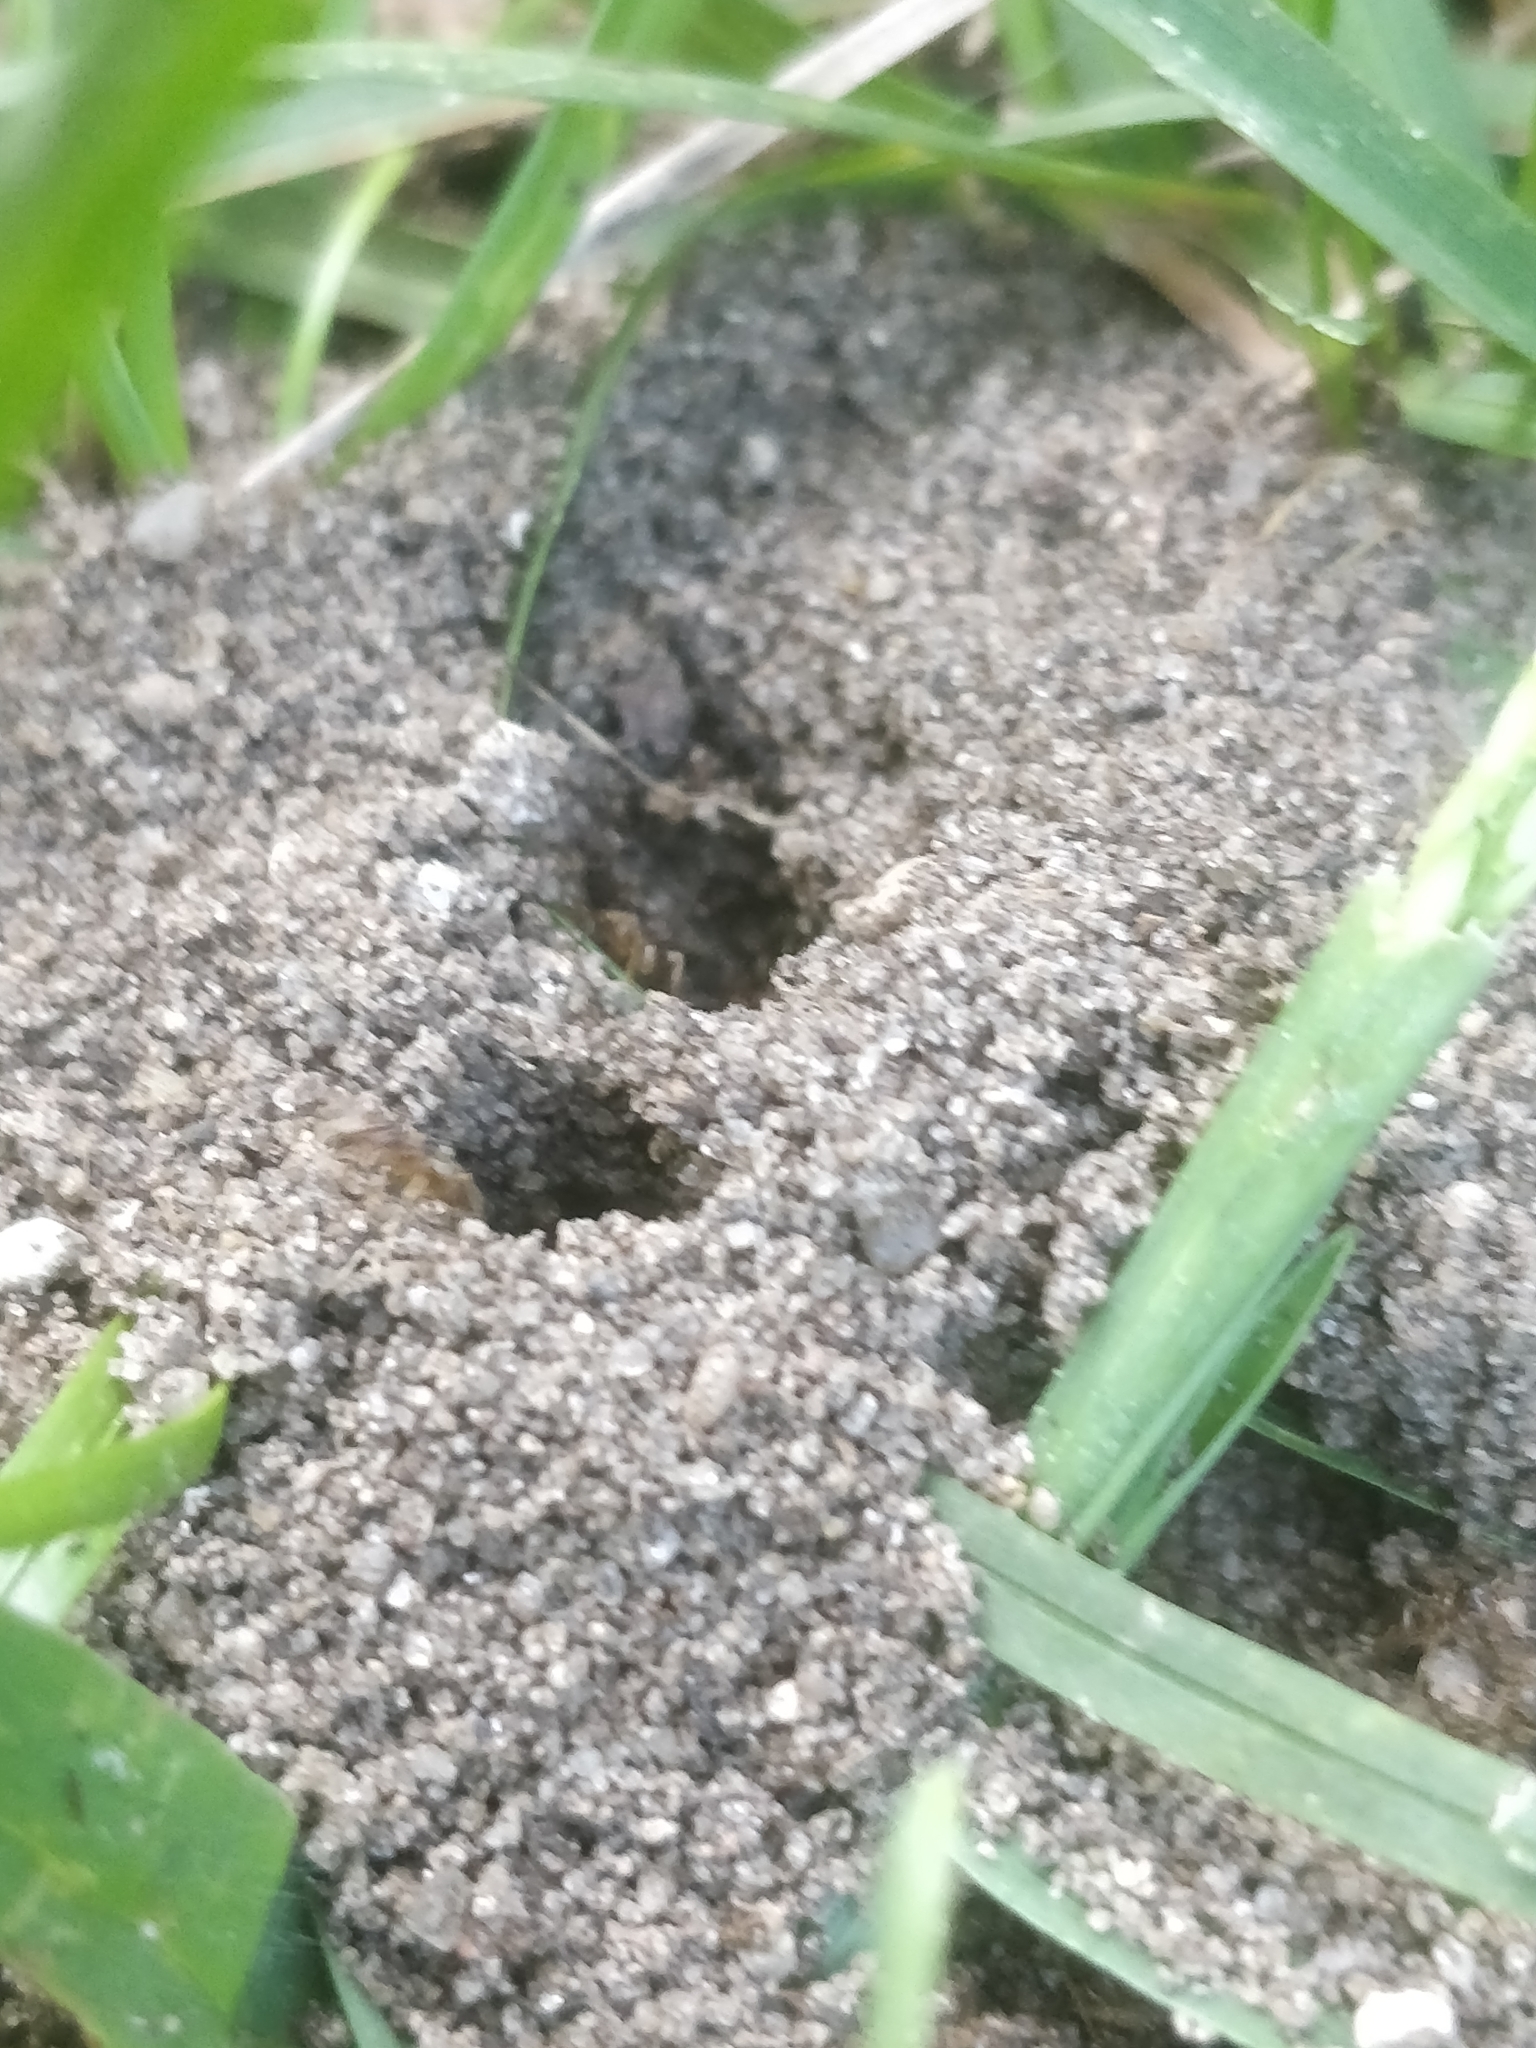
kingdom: Animalia
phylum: Arthropoda
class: Insecta
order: Hymenoptera
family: Formicidae
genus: Lasius
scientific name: Lasius neoniger
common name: Turfgrass ant
